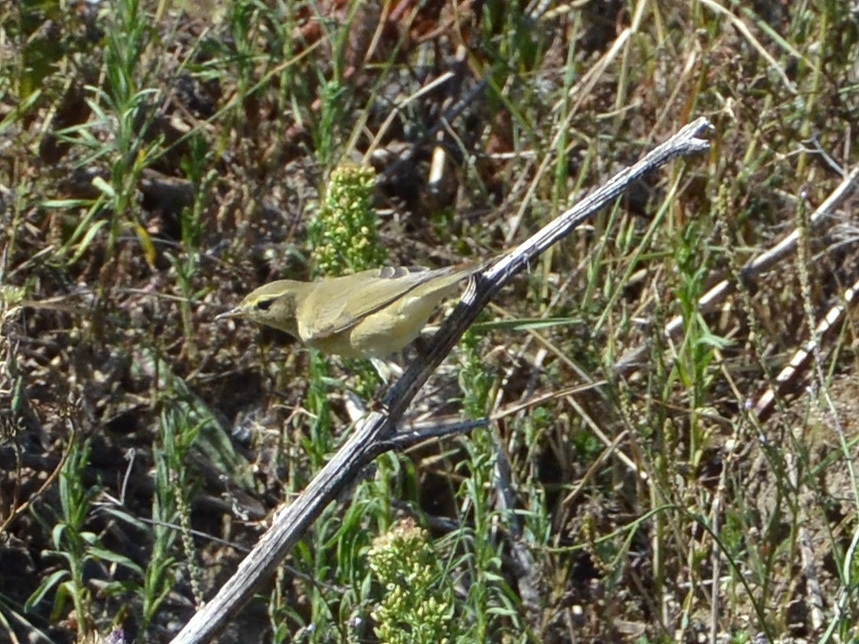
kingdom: Animalia
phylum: Chordata
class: Aves
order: Passeriformes
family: Phylloscopidae
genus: Phylloscopus
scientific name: Phylloscopus trochilus
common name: Willow warbler
